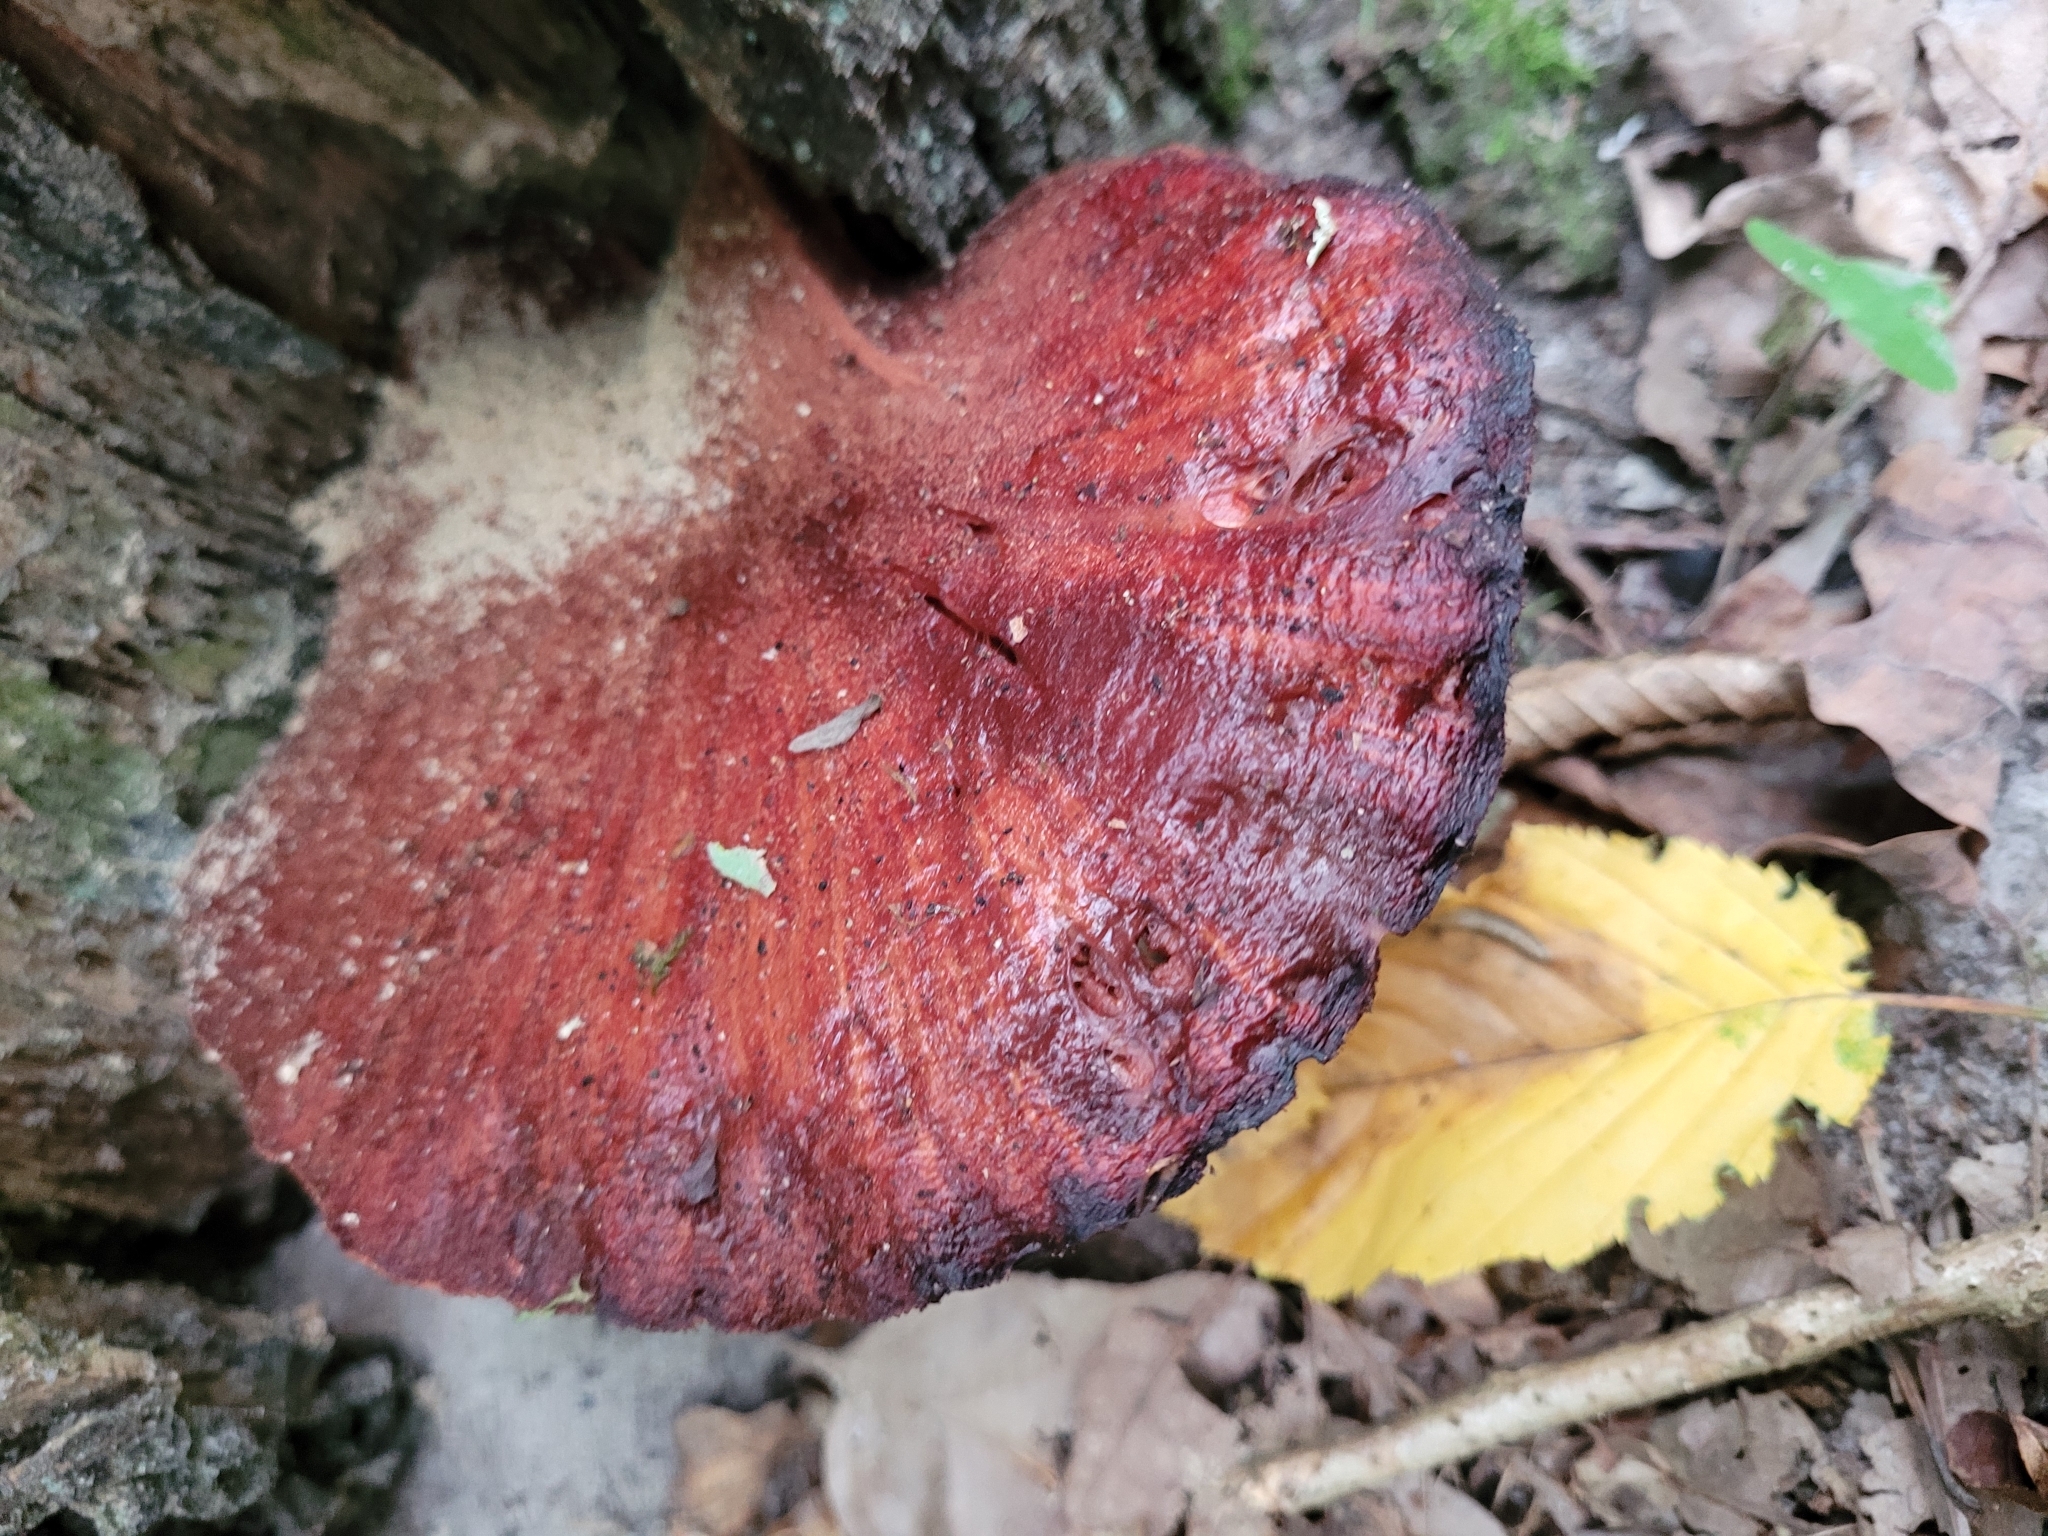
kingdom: Fungi
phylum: Basidiomycota
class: Agaricomycetes
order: Agaricales
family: Fistulinaceae
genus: Fistulina
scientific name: Fistulina hepatica
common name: Beef-steak fungus
